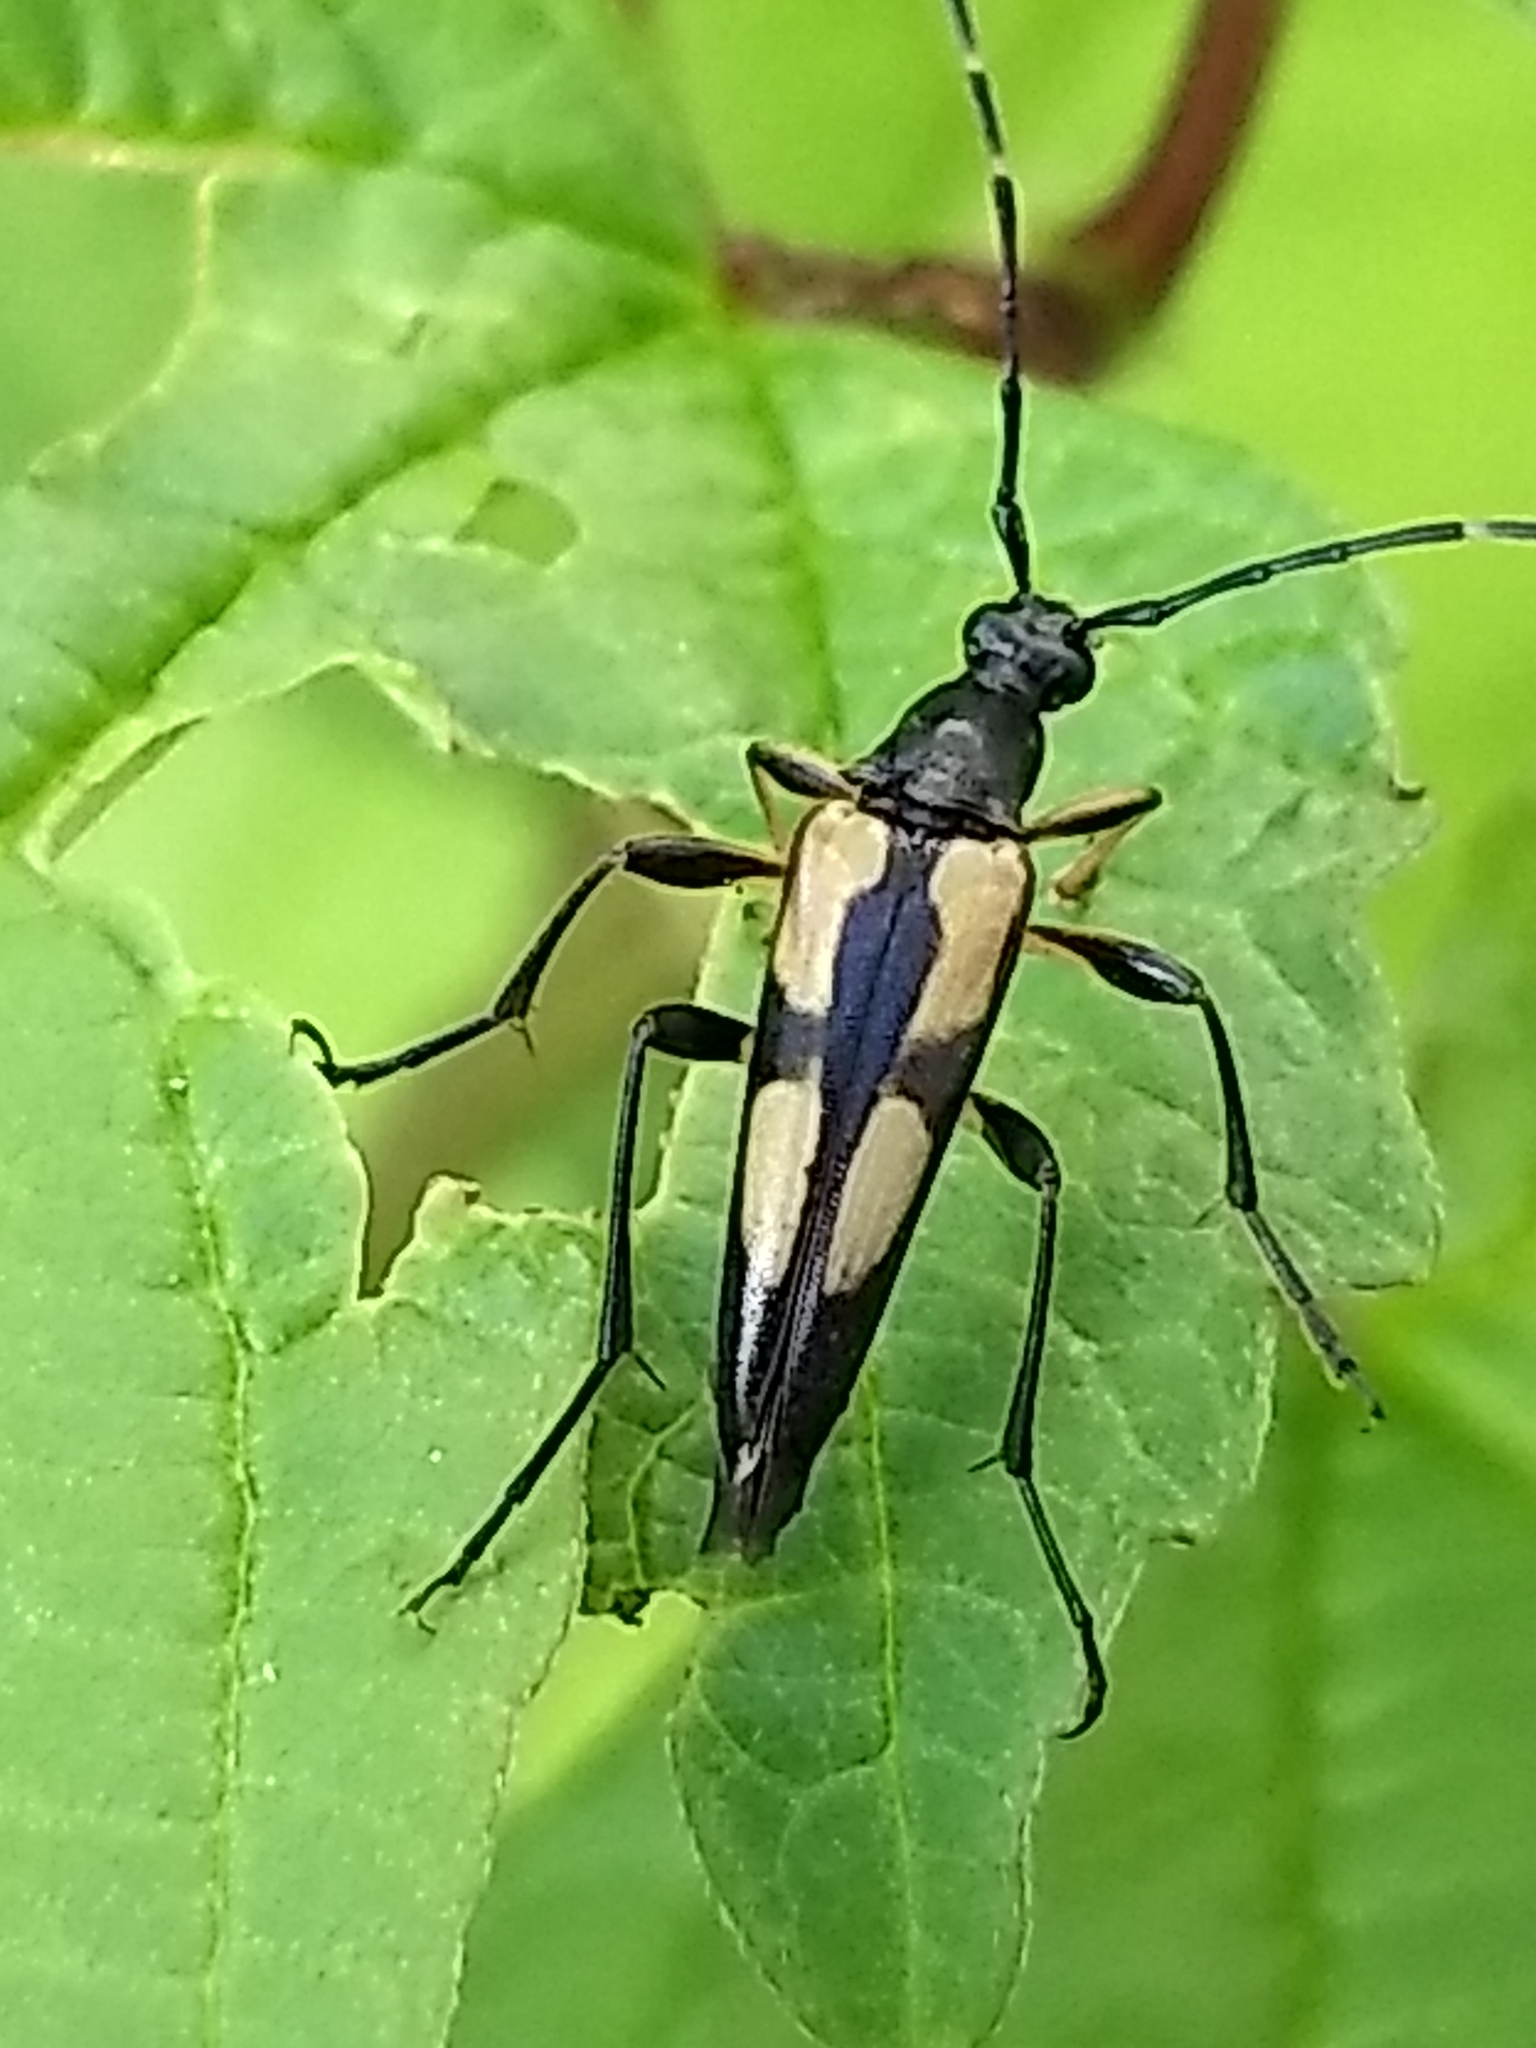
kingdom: Animalia
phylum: Arthropoda
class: Insecta
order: Coleoptera
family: Cerambycidae
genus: Etorofus
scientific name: Etorofus
